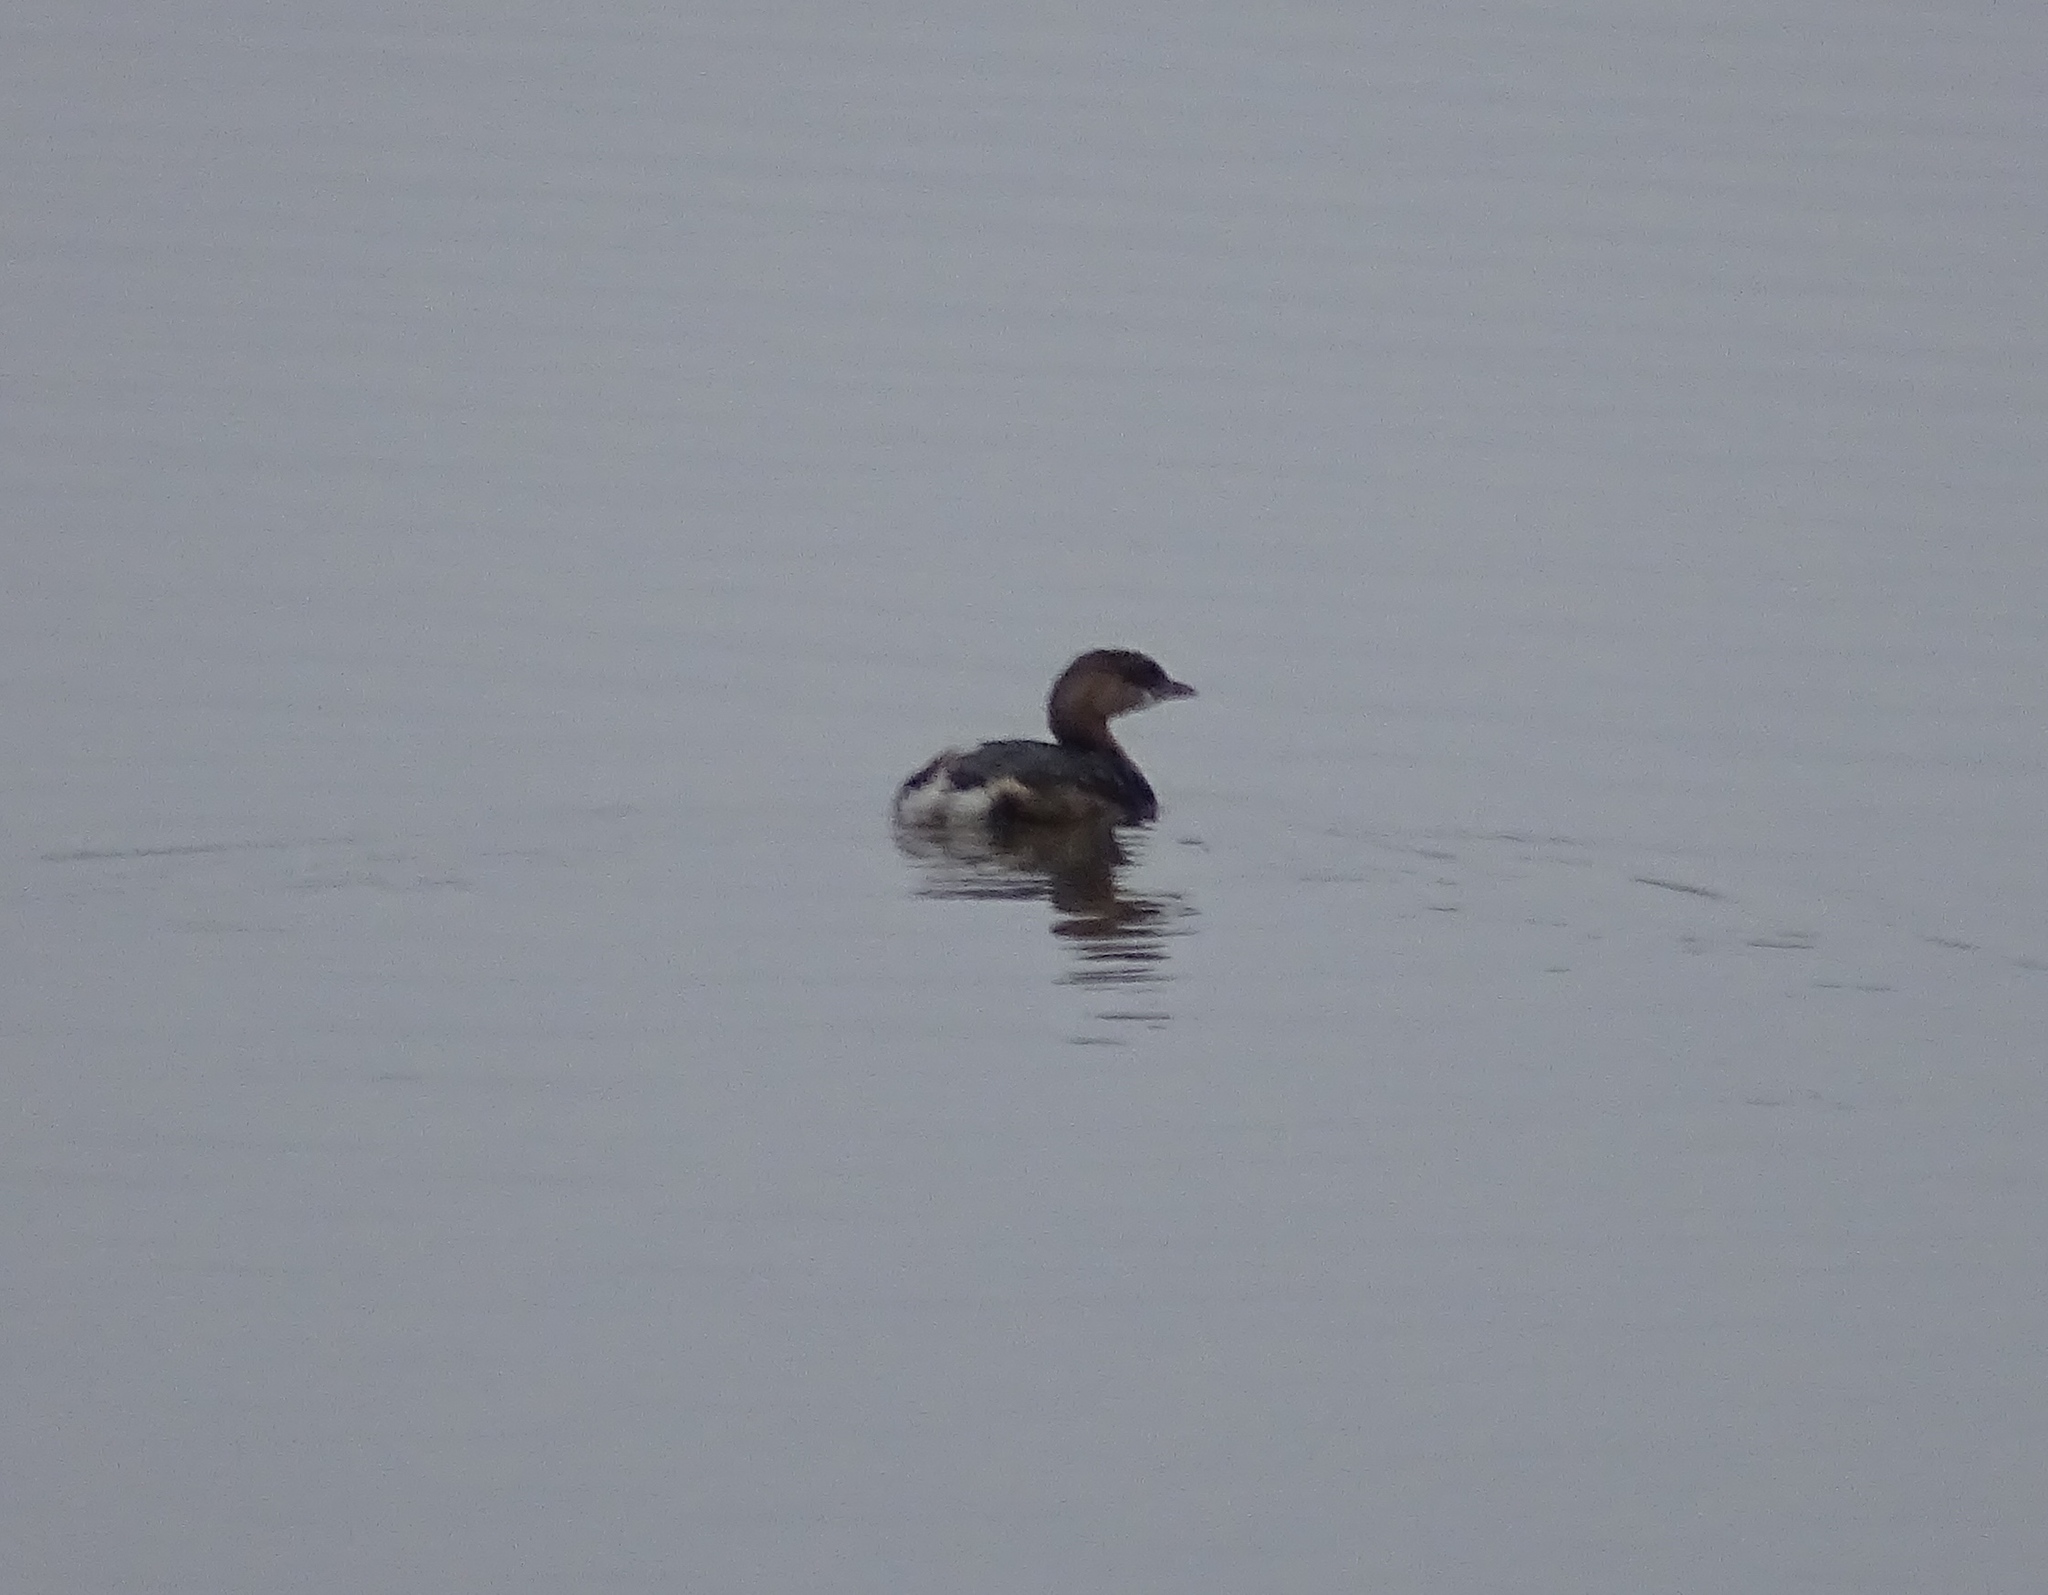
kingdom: Animalia
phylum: Chordata
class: Aves
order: Podicipediformes
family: Podicipedidae
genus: Podilymbus
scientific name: Podilymbus podiceps
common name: Pied-billed grebe
